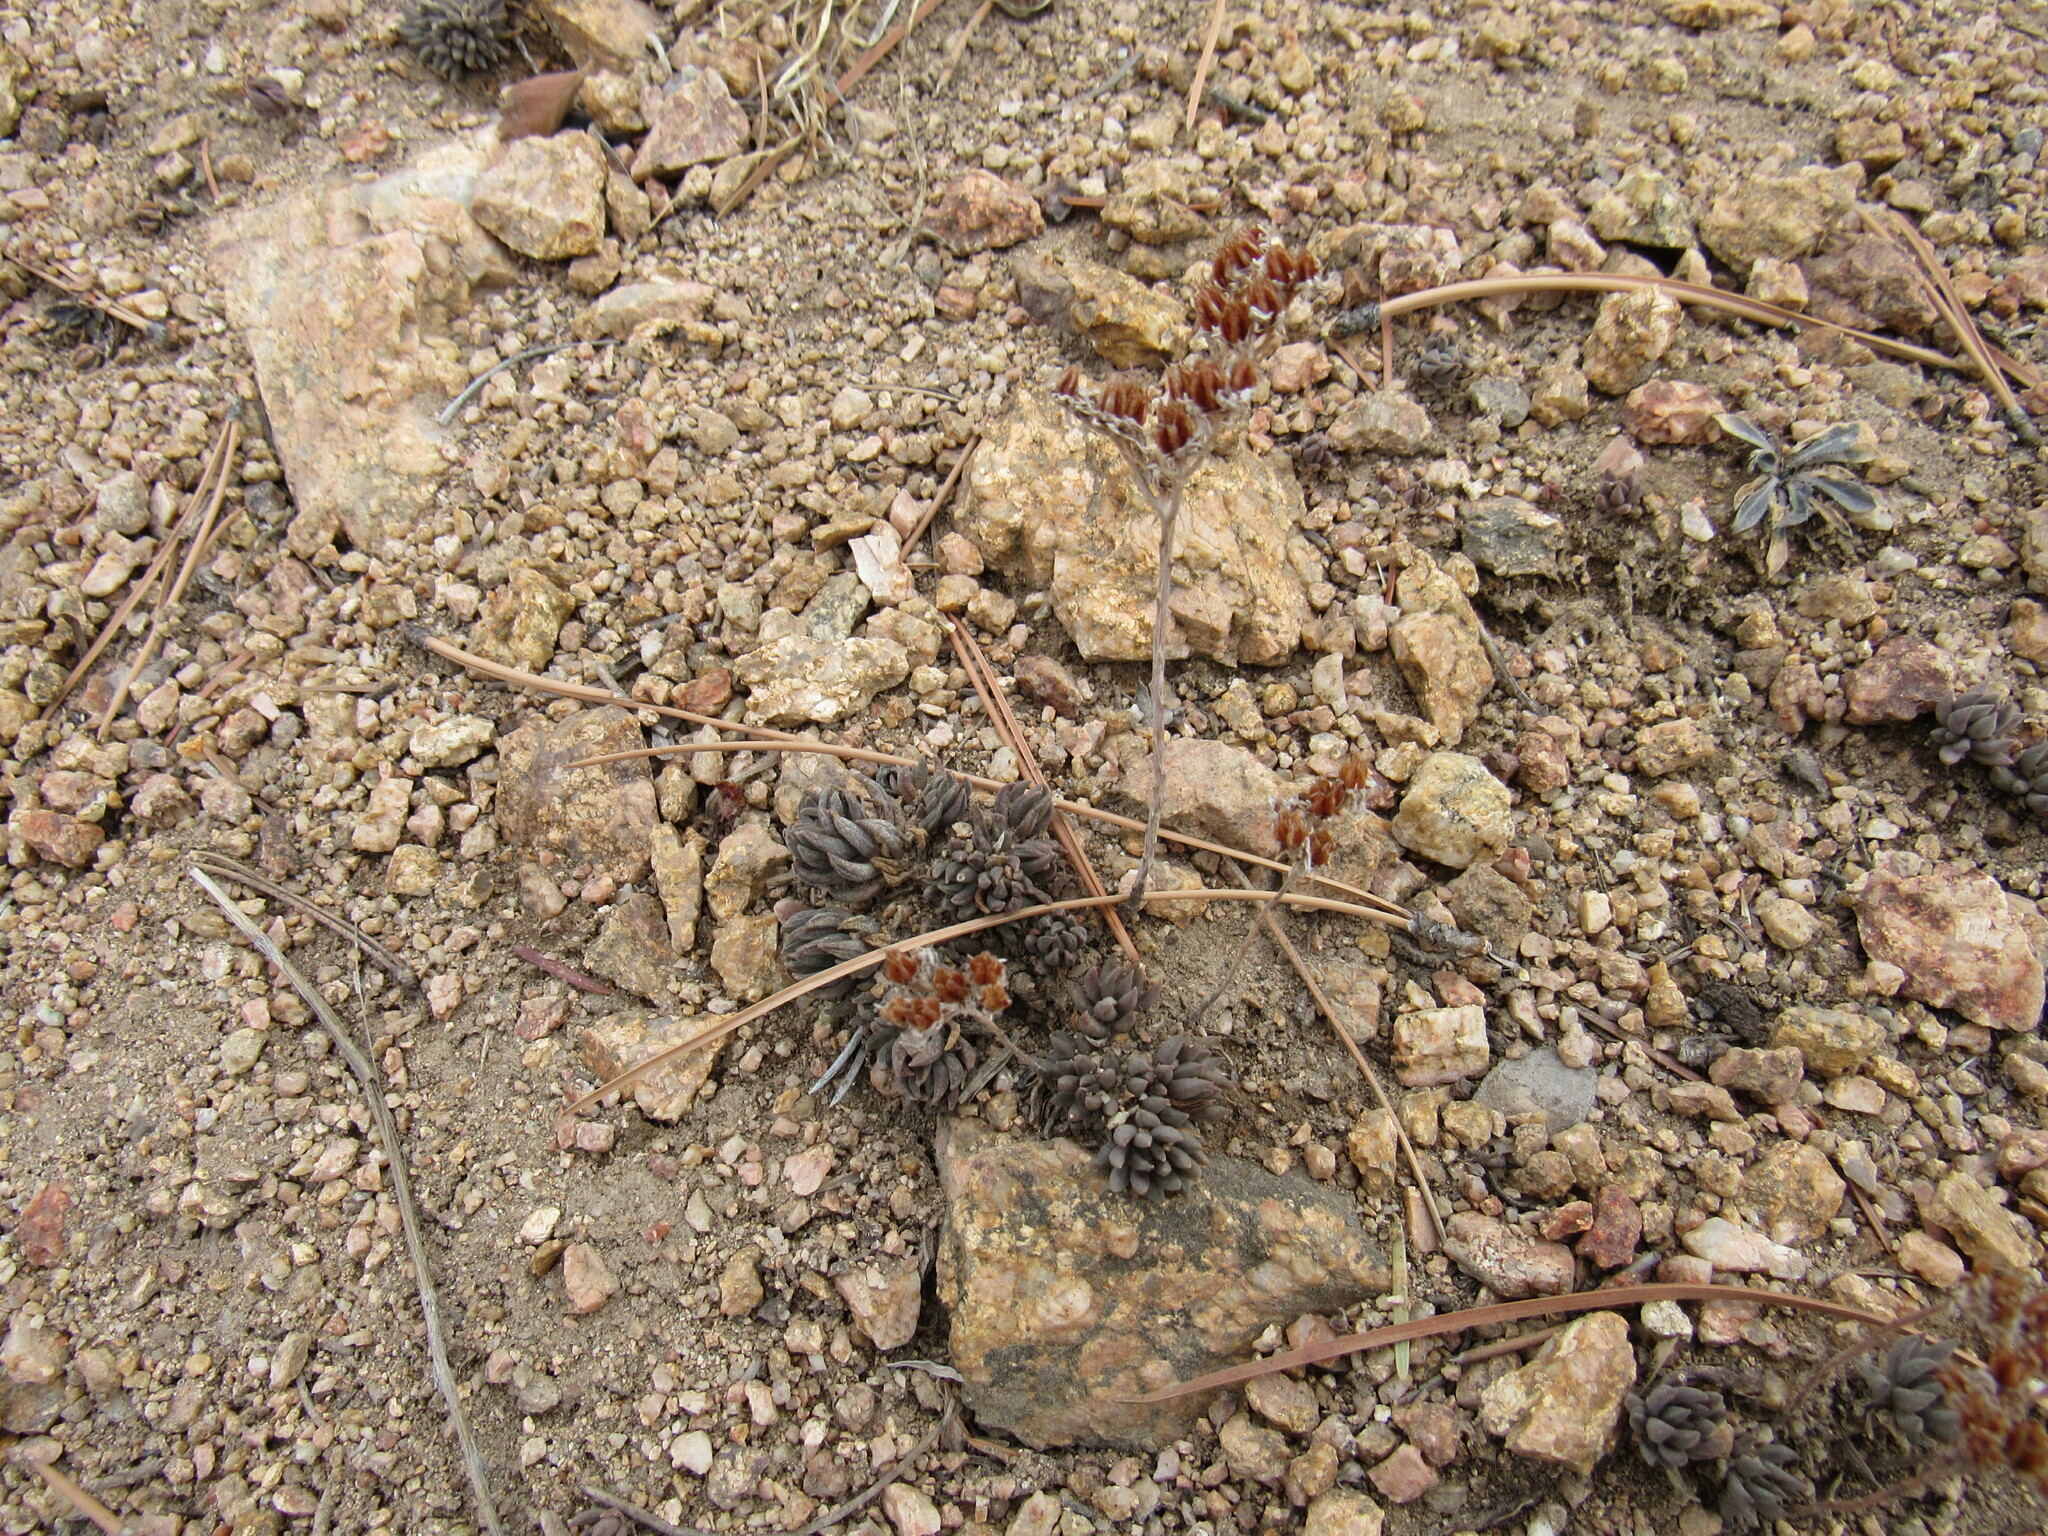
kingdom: Plantae
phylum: Tracheophyta
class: Magnoliopsida
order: Saxifragales
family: Crassulaceae
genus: Sedum
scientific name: Sedum lanceolatum
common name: Common stonecrop
